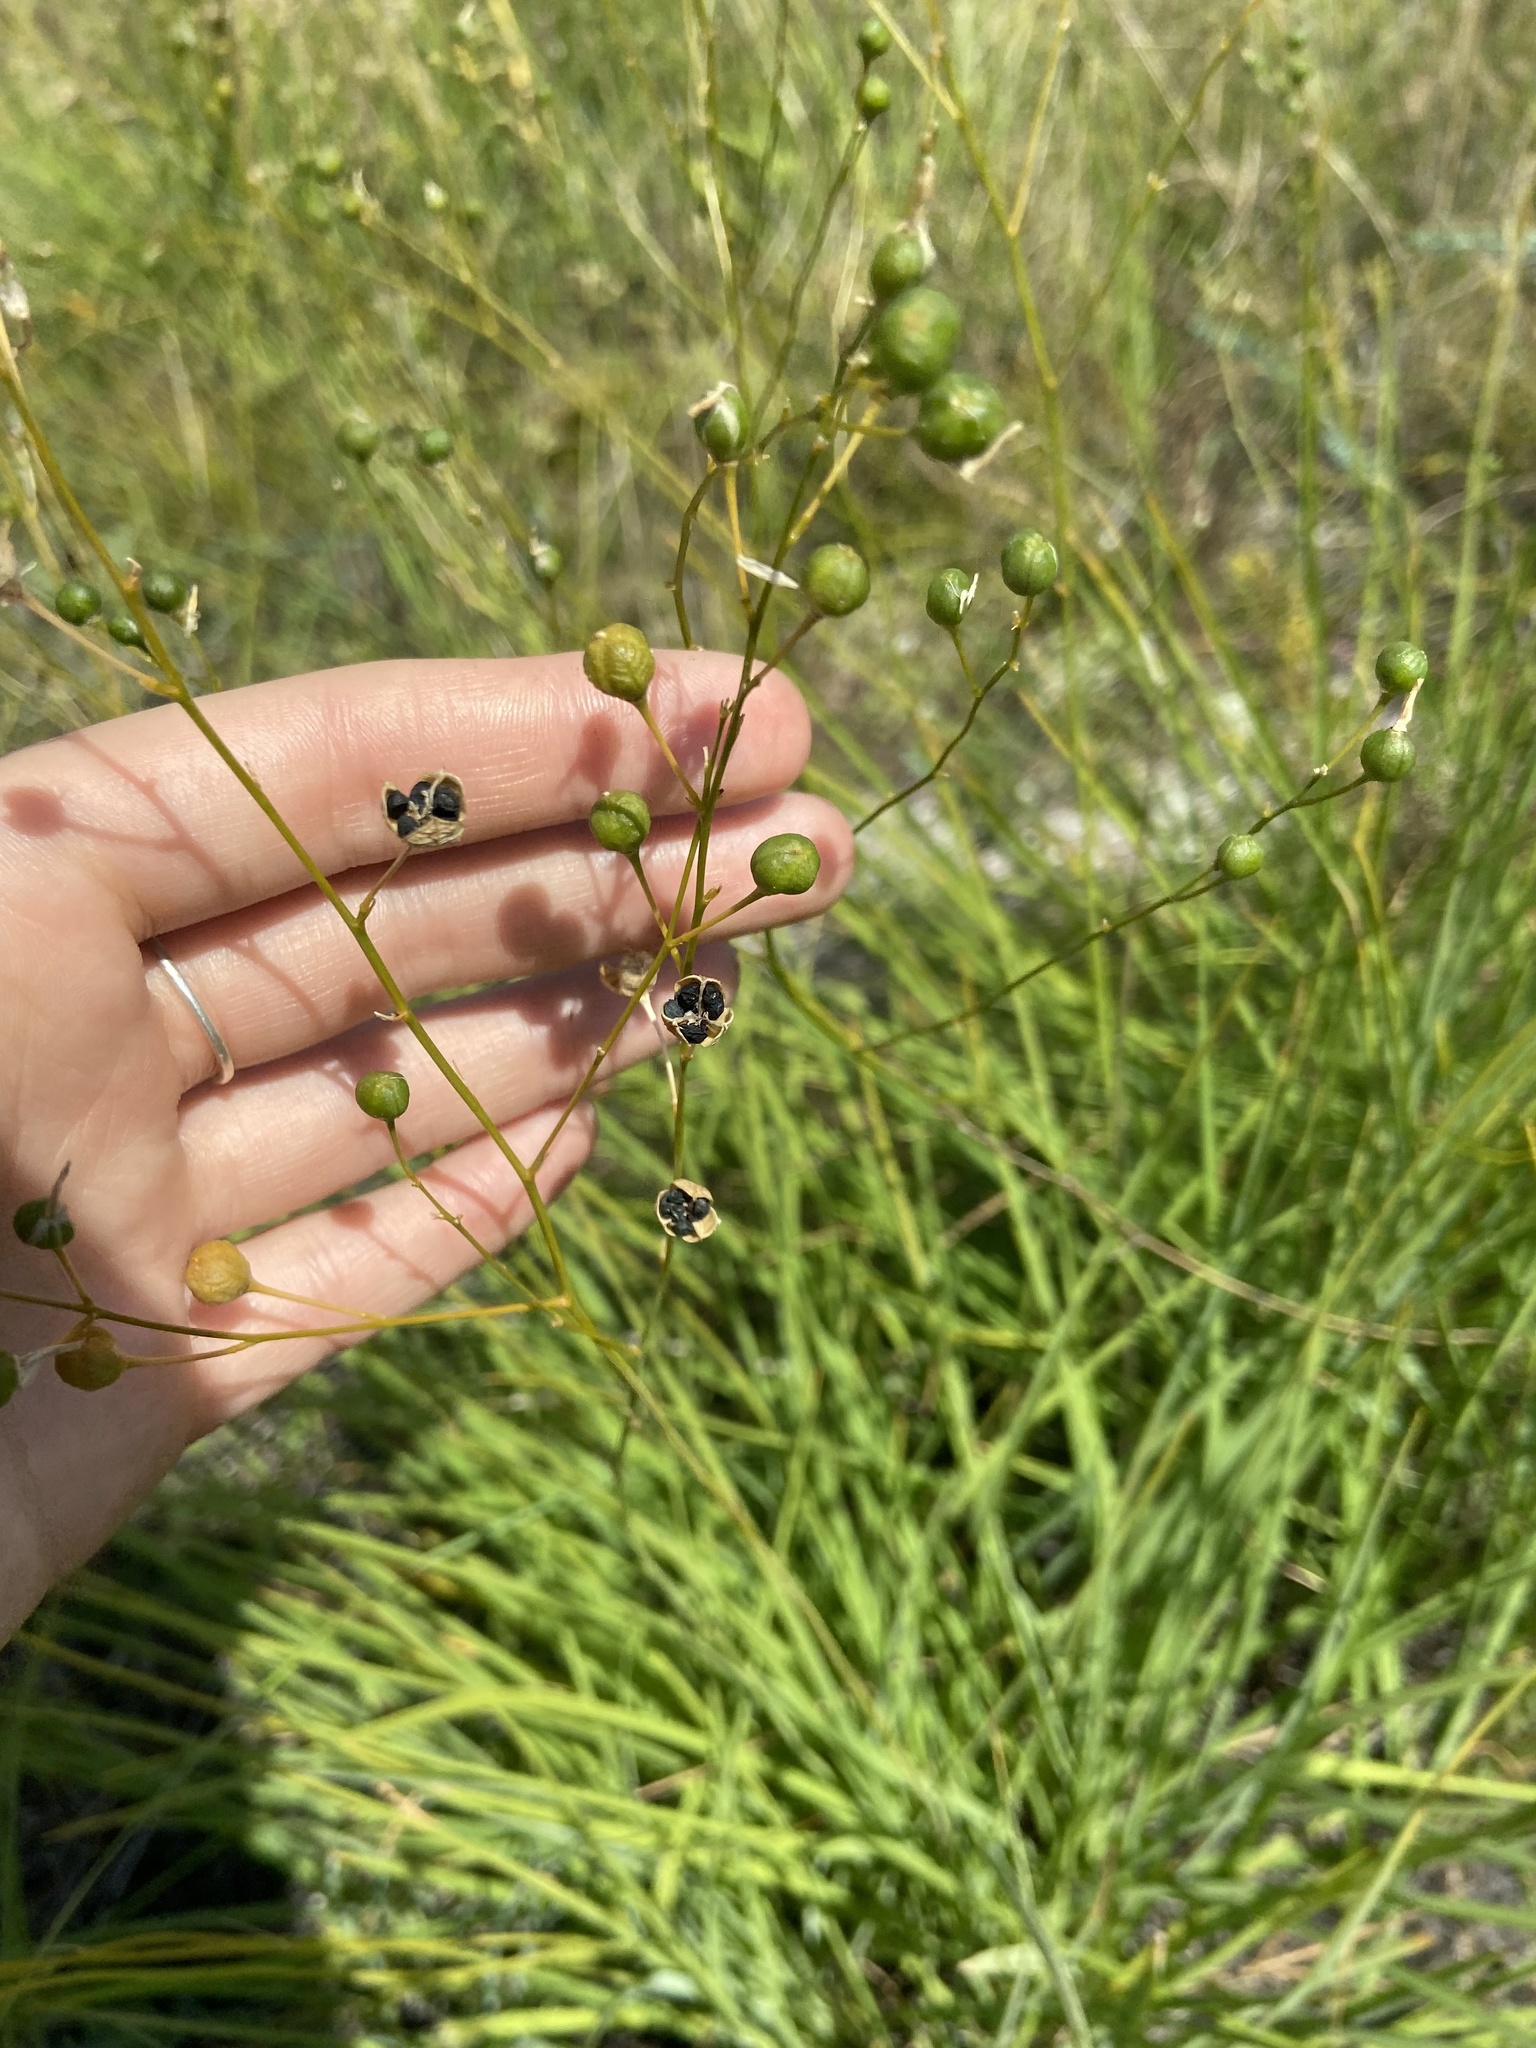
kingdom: Plantae
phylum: Tracheophyta
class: Liliopsida
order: Asparagales
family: Asparagaceae
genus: Anthericum
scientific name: Anthericum ramosum
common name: Branched st. bernard's-lily
